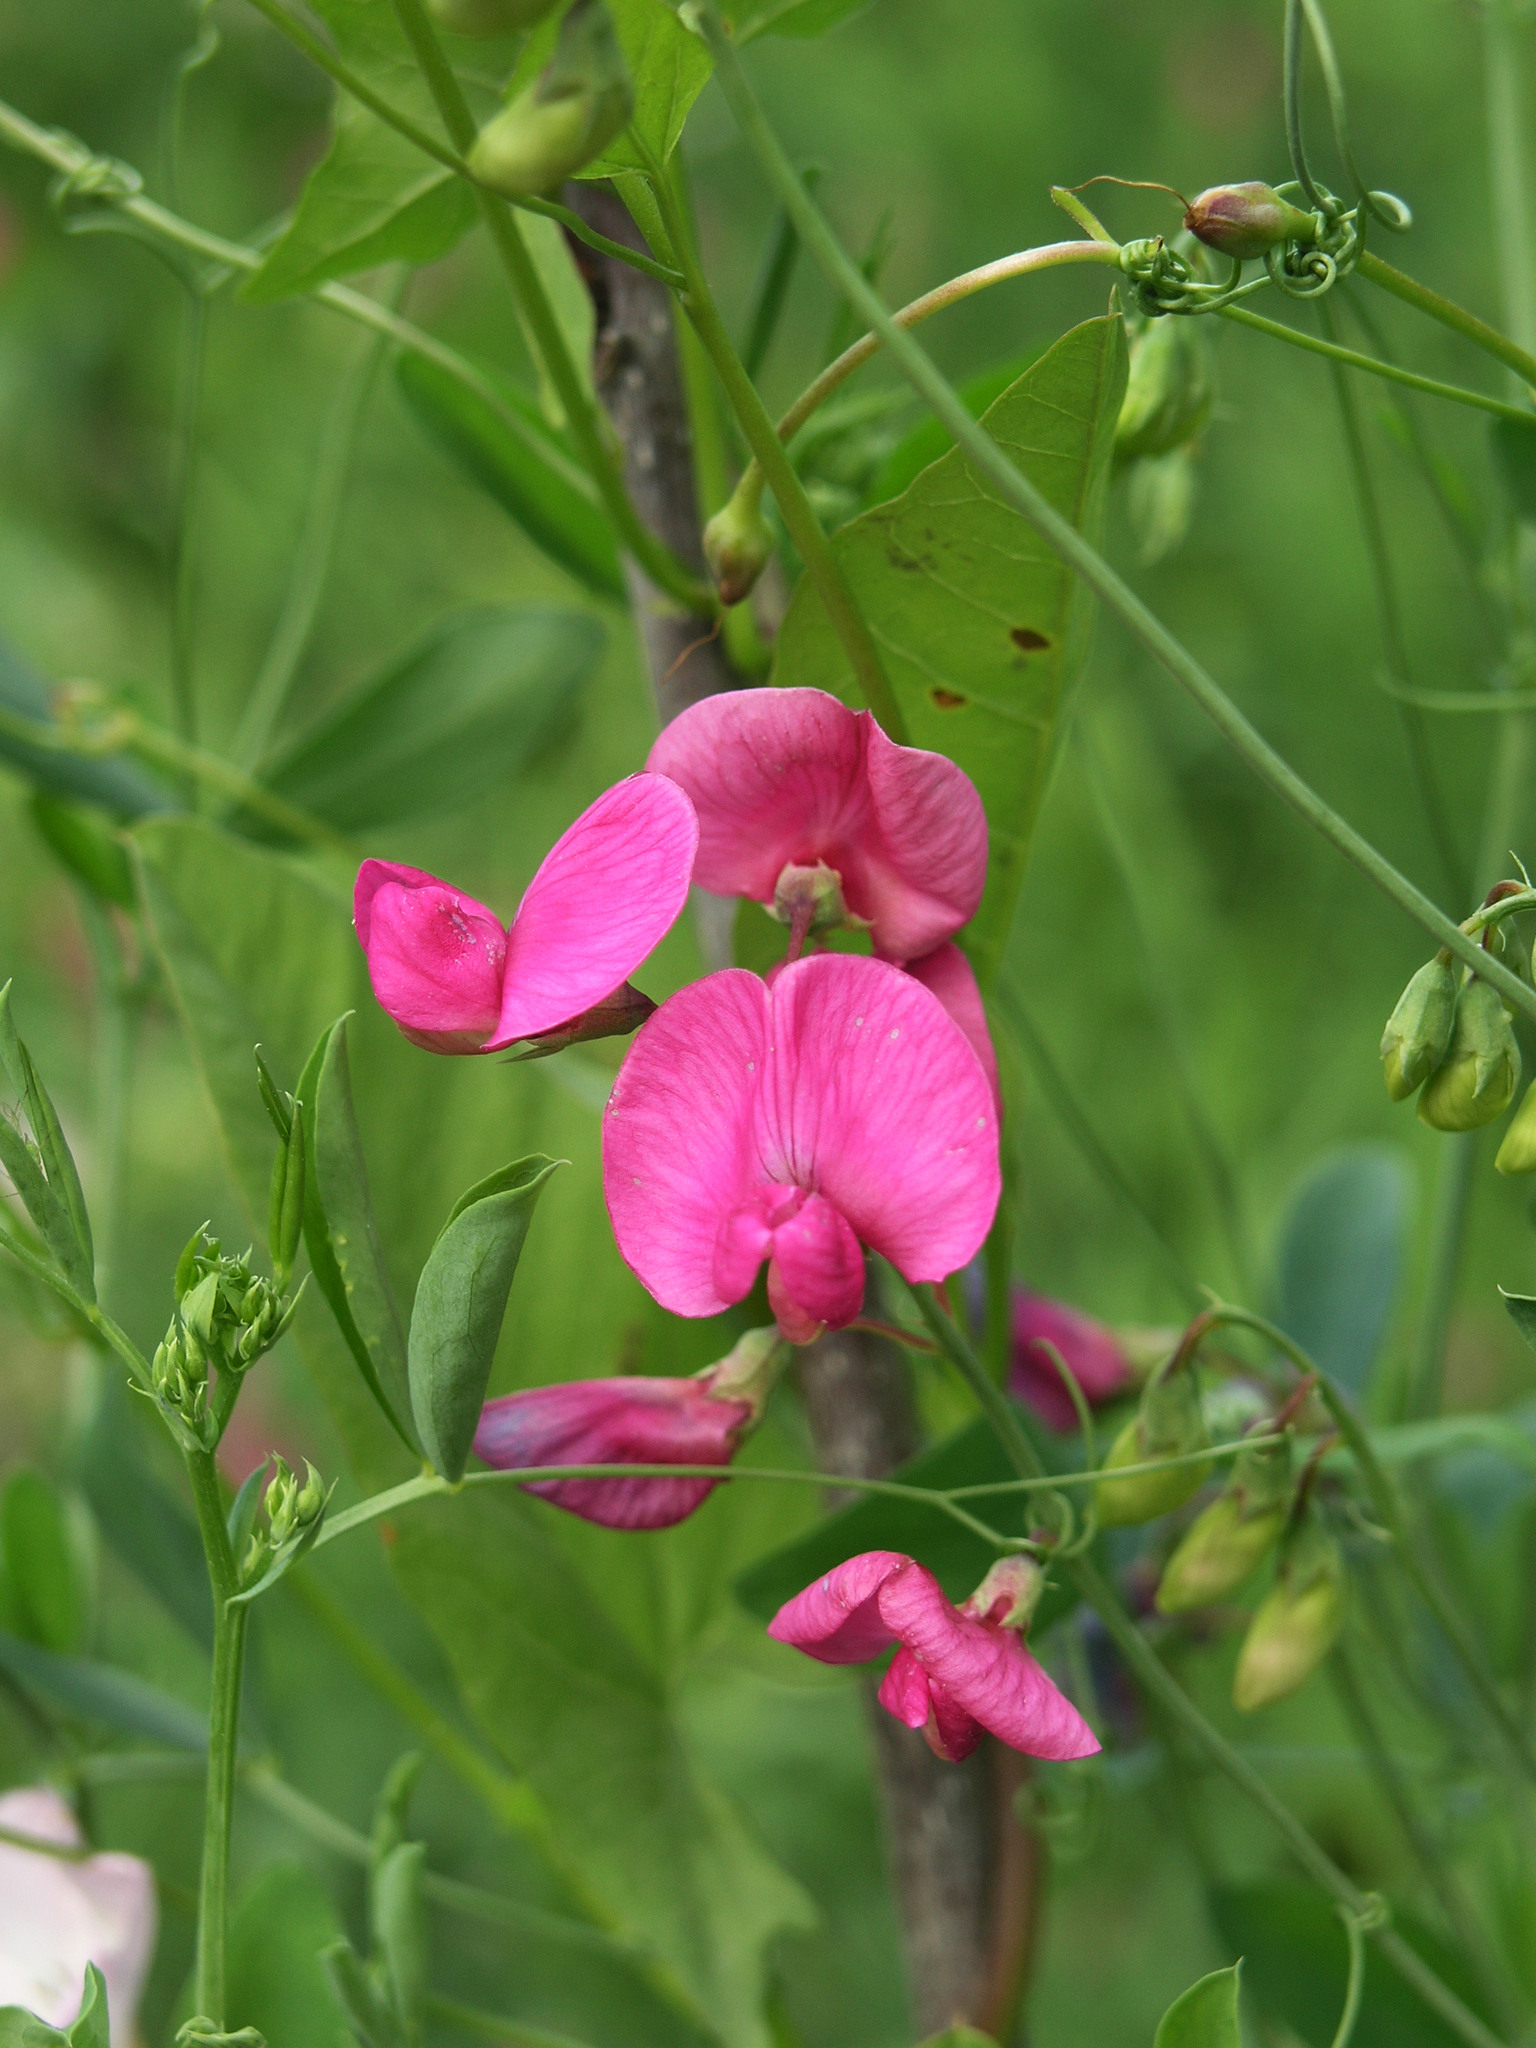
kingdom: Plantae
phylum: Tracheophyta
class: Magnoliopsida
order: Fabales
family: Fabaceae
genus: Lathyrus
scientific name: Lathyrus tuberosus
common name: Tuberous pea
